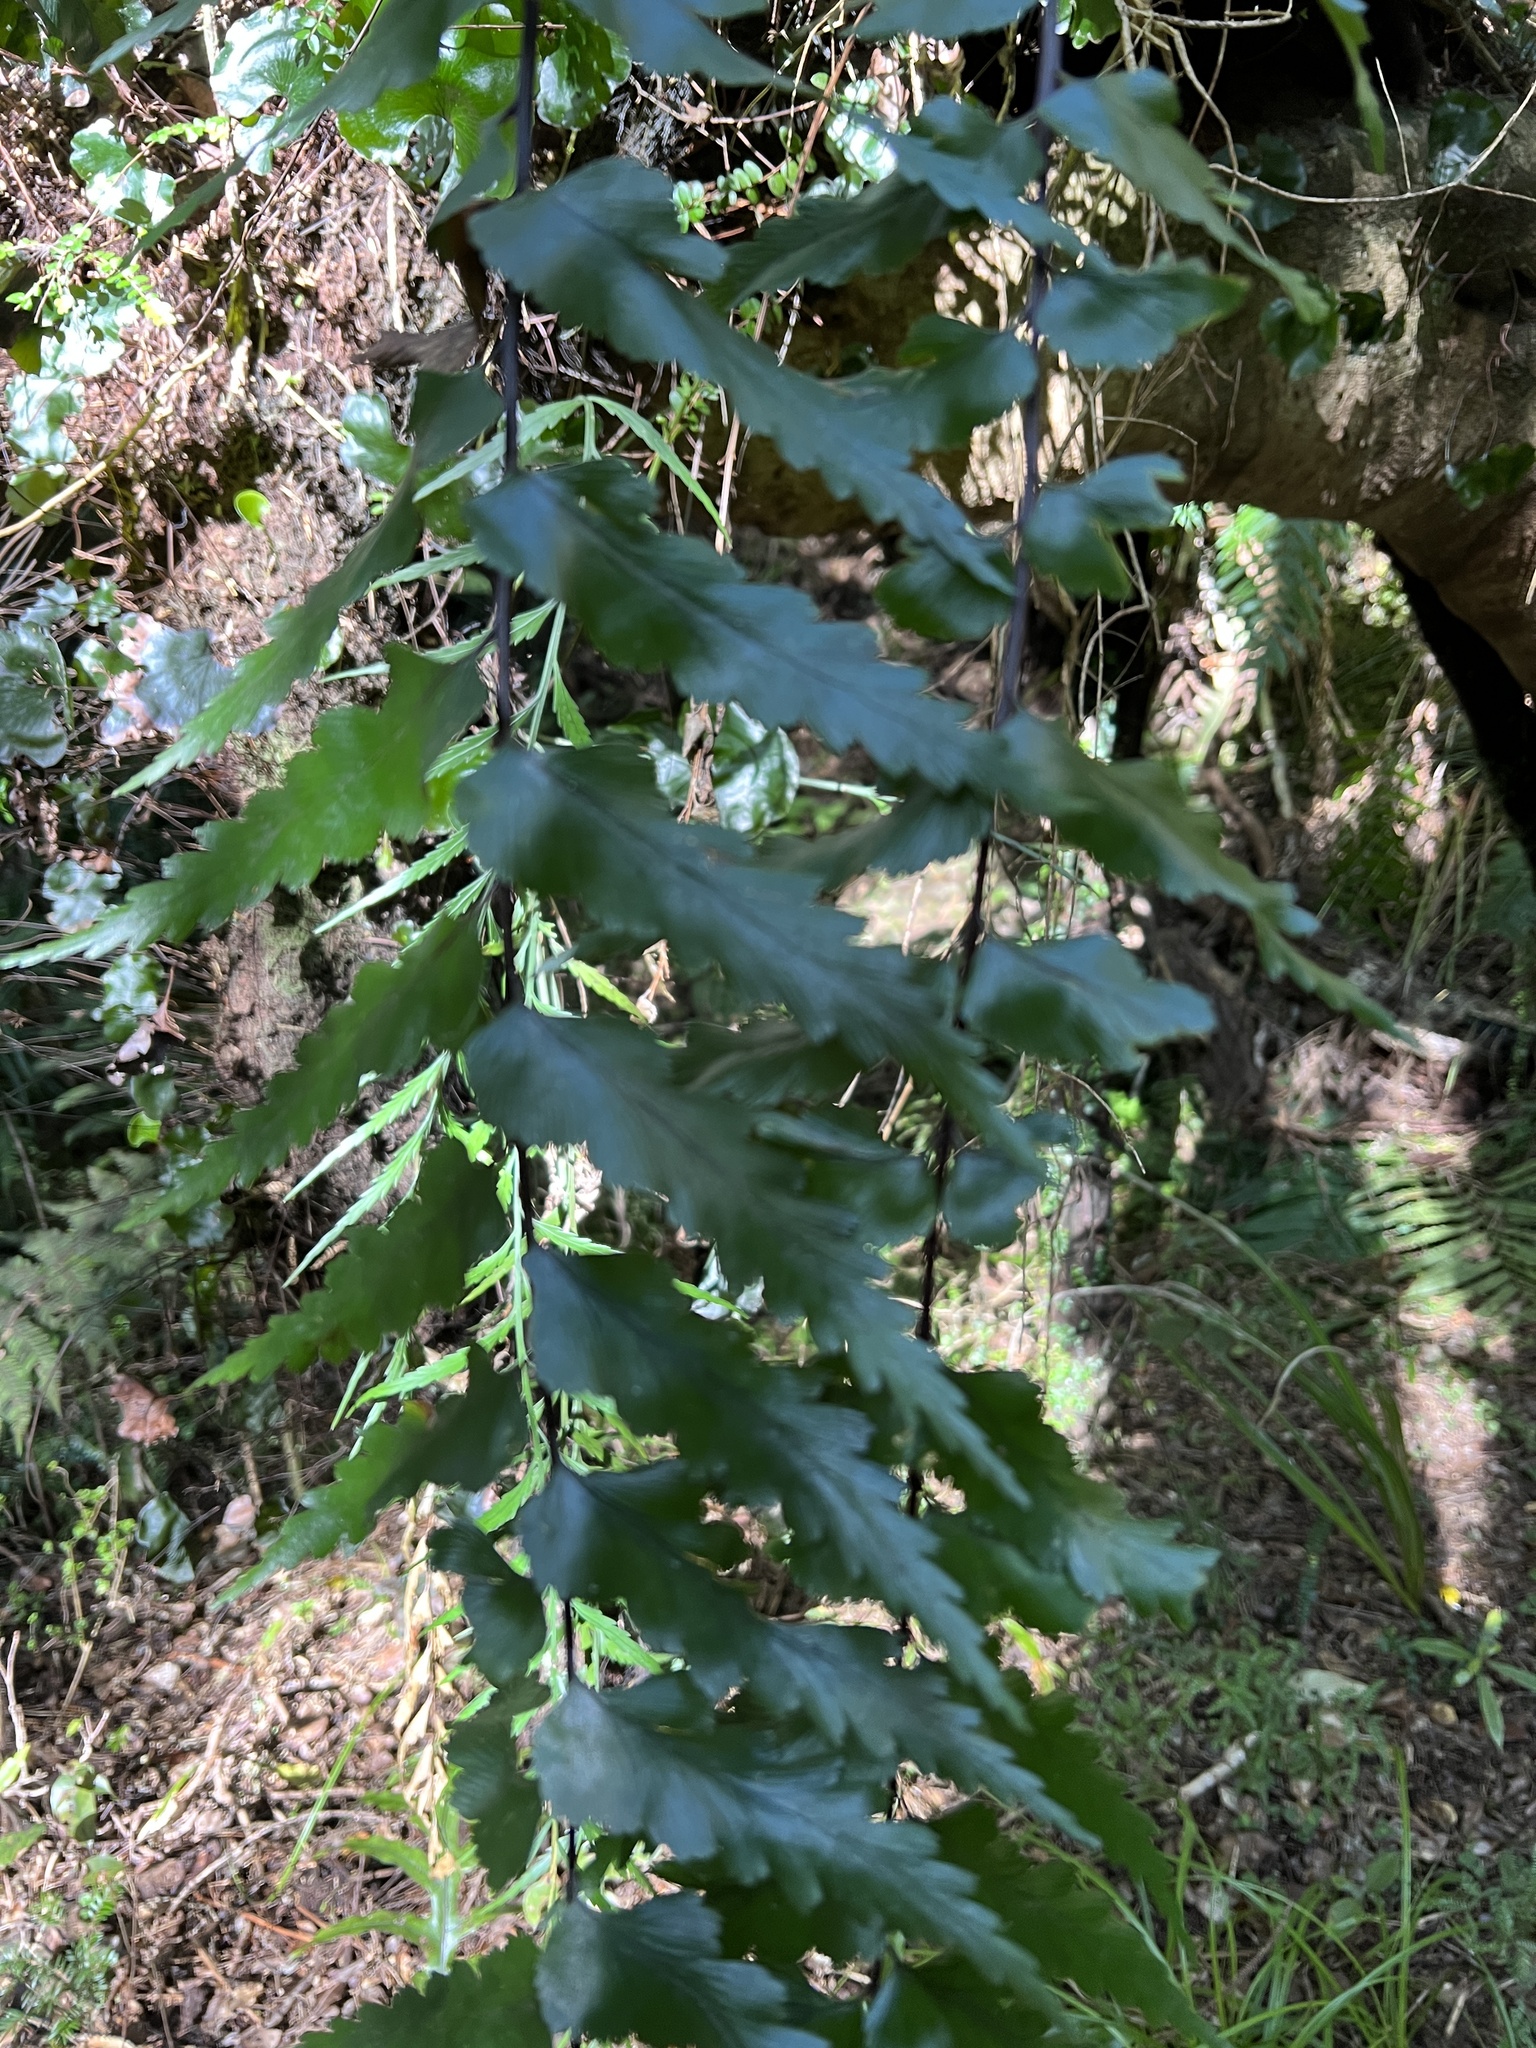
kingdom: Plantae
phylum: Tracheophyta
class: Polypodiopsida
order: Polypodiales
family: Aspleniaceae
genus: Asplenium
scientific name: Asplenium polyodon
